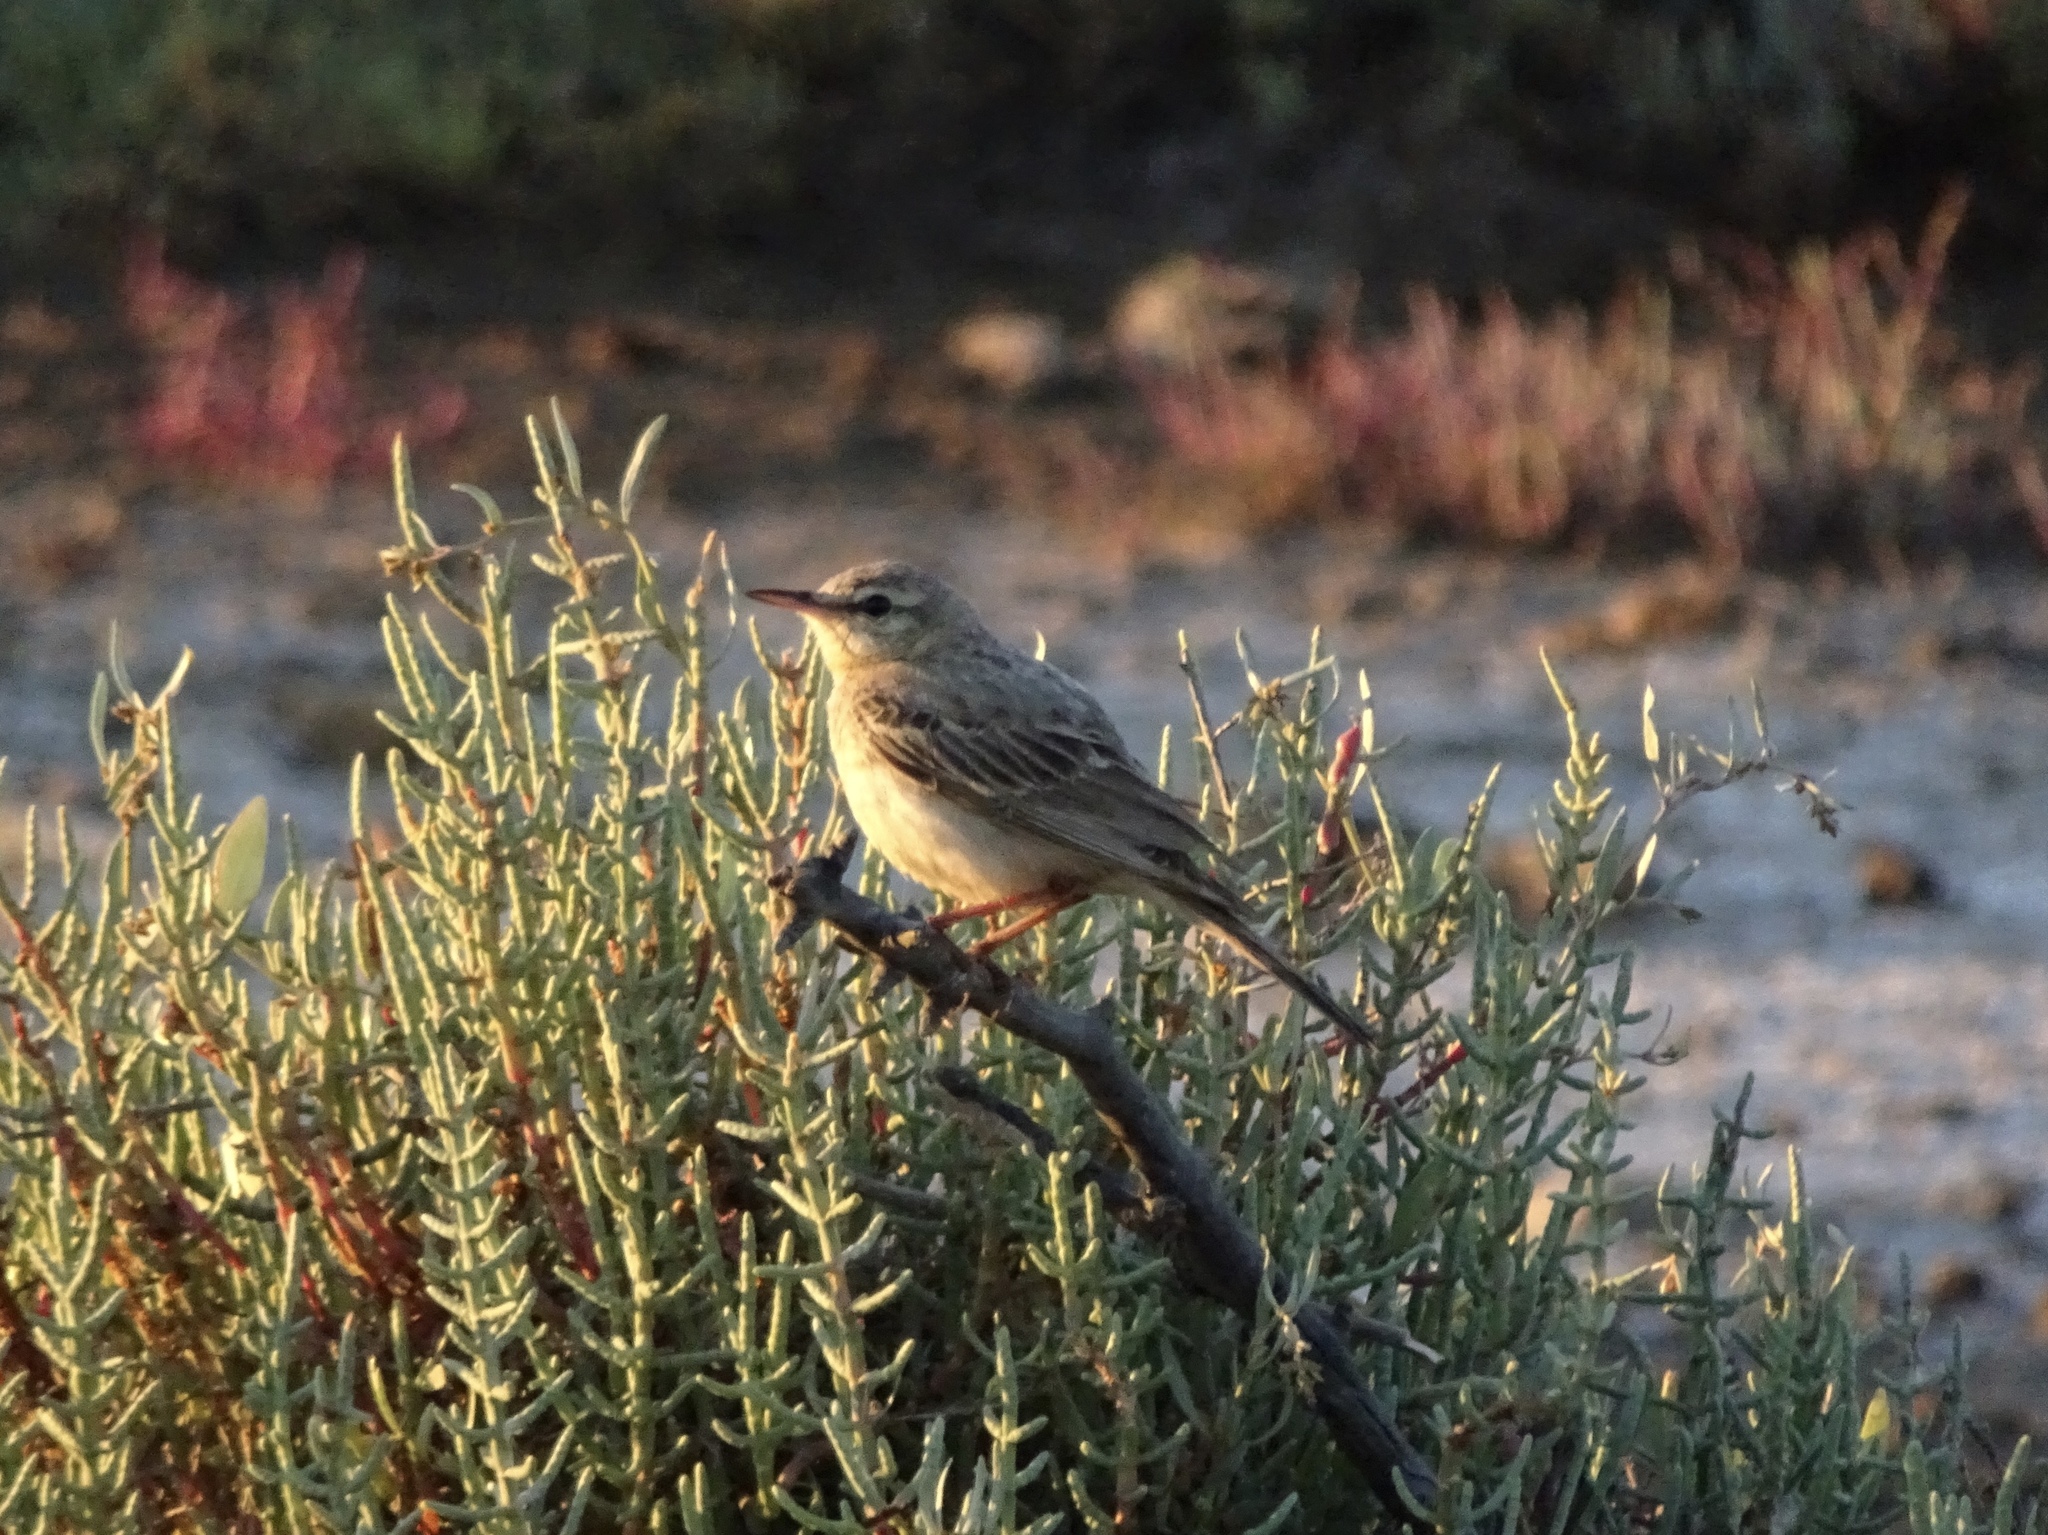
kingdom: Animalia
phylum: Chordata
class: Aves
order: Passeriformes
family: Motacillidae
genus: Anthus
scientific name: Anthus campestris
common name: Tawny pipit
